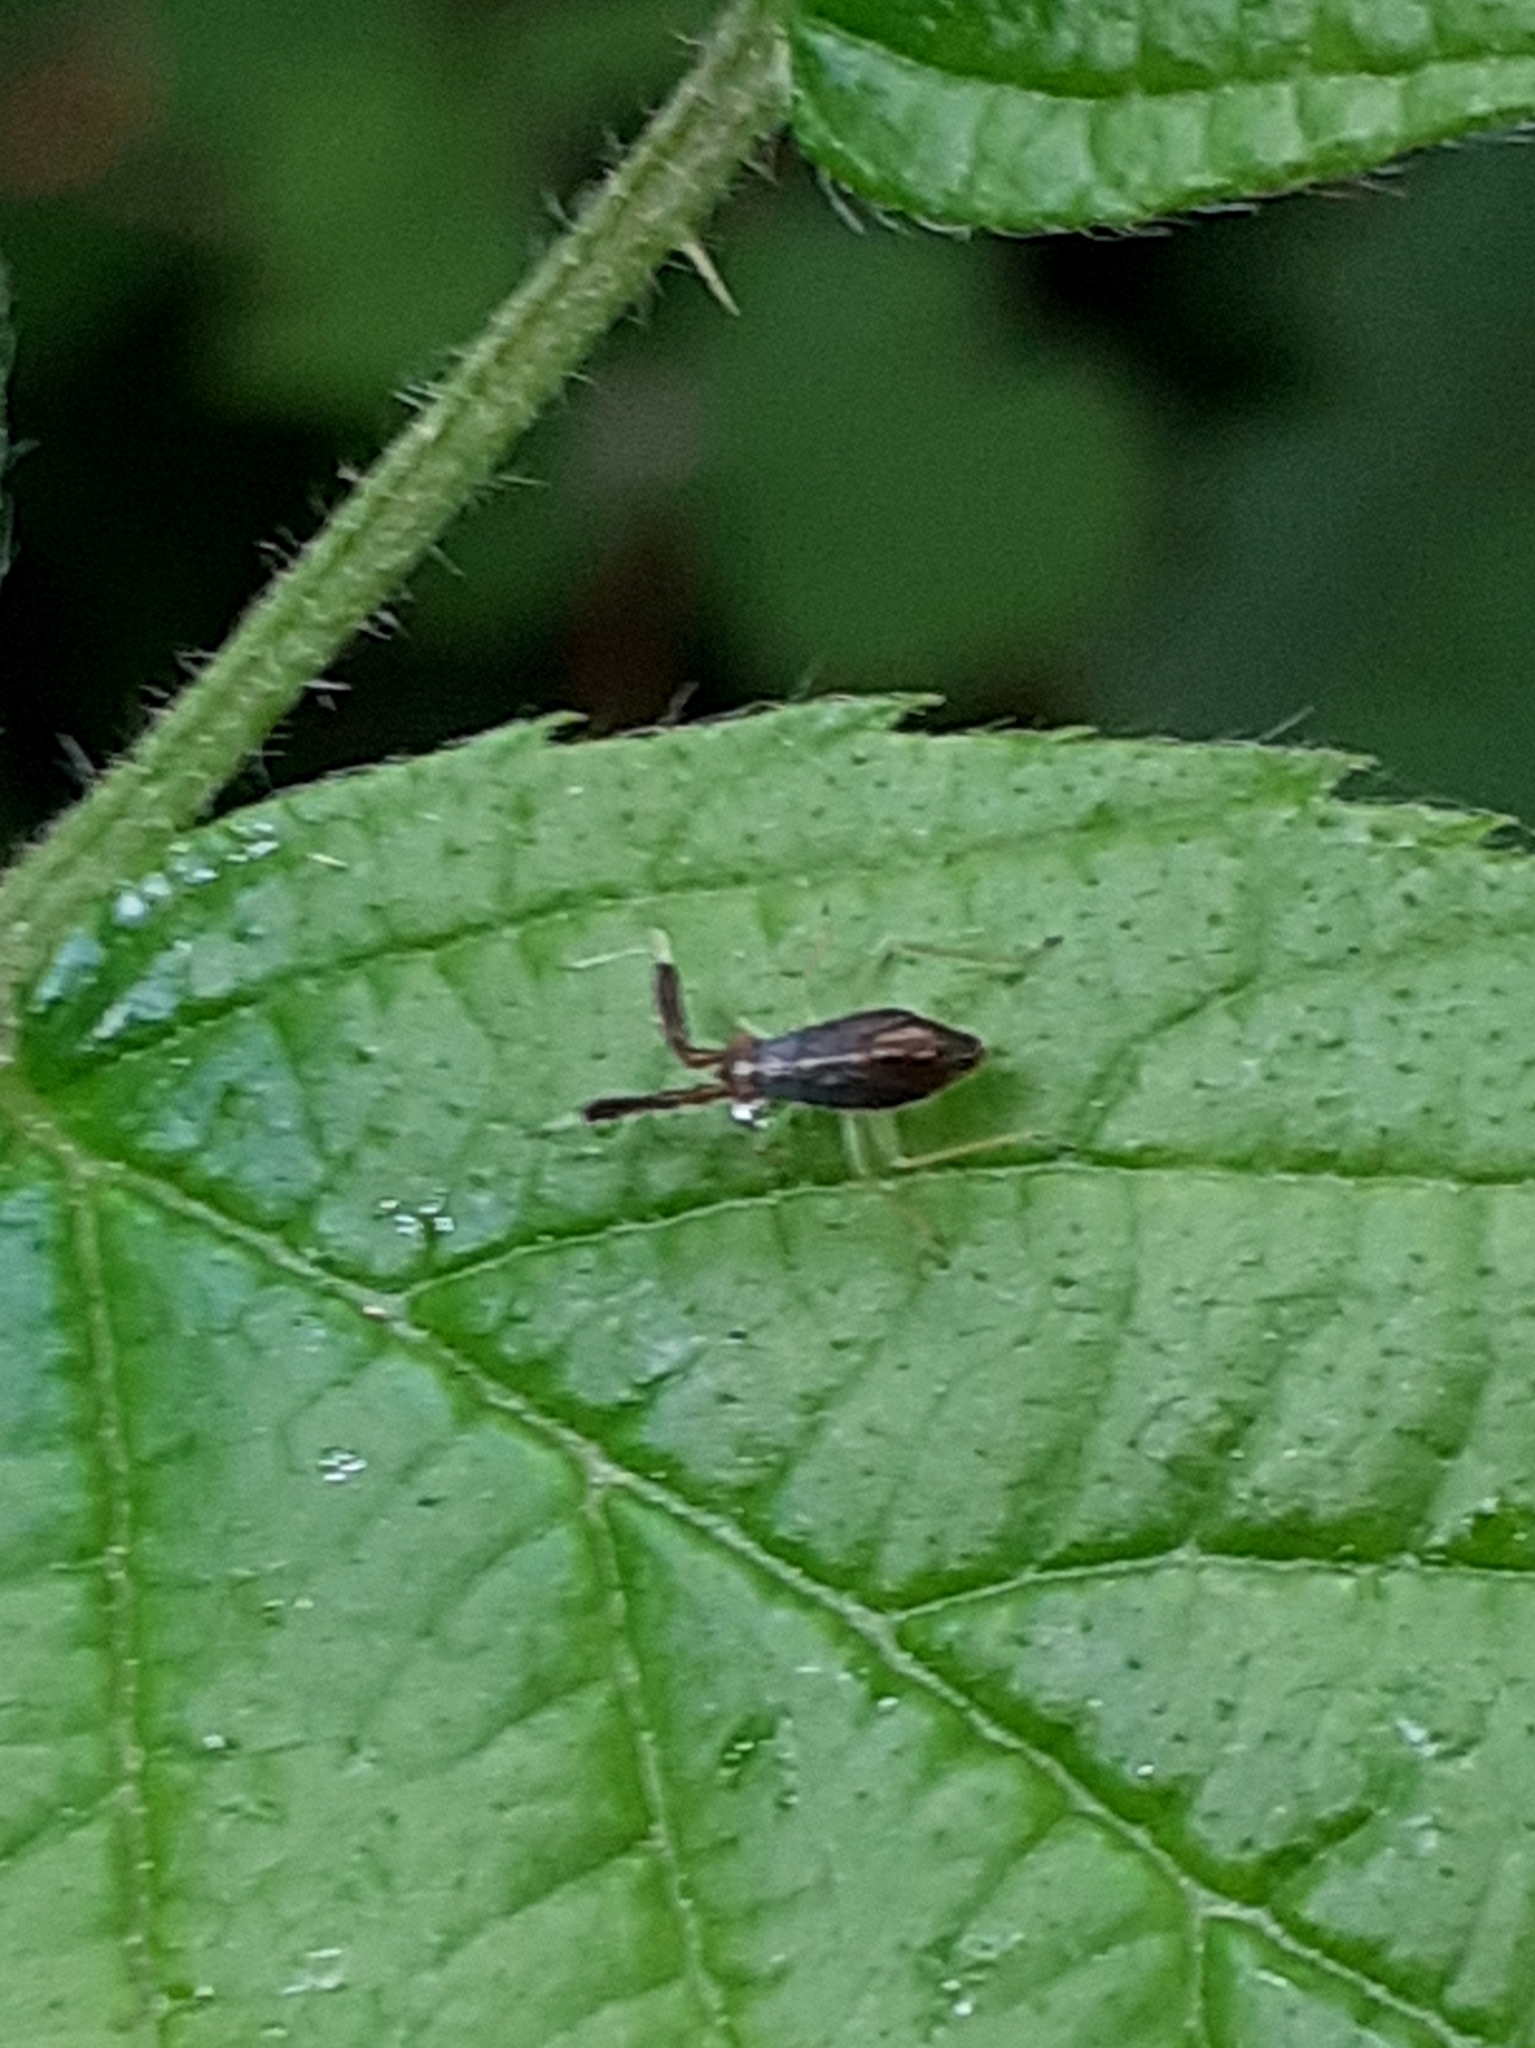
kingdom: Animalia
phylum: Arthropoda
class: Insecta
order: Hemiptera
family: Miridae
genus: Heterotoma
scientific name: Heterotoma planicornis
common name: Plant bug
